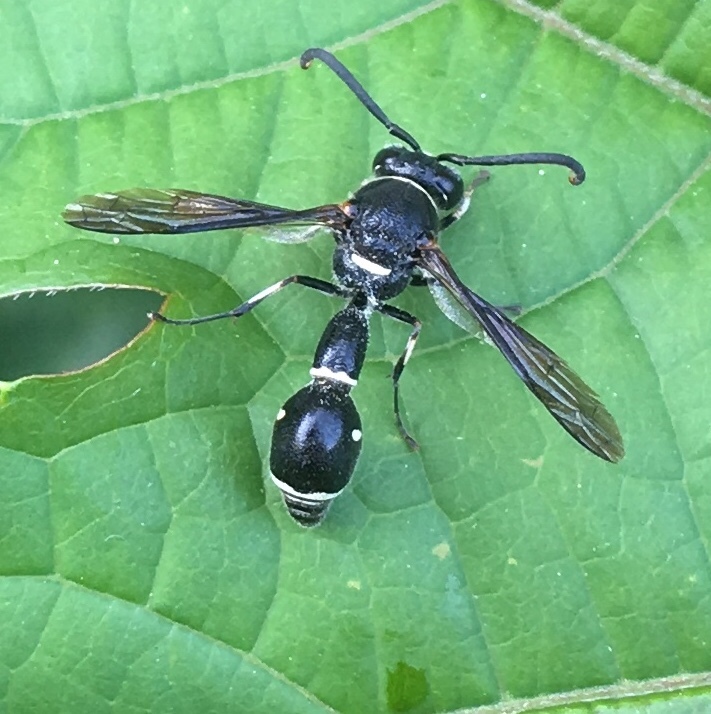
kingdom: Animalia
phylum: Arthropoda
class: Insecta
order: Hymenoptera
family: Vespidae
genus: Eumenes
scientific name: Eumenes fraternus
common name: Fraternal potter wasp
